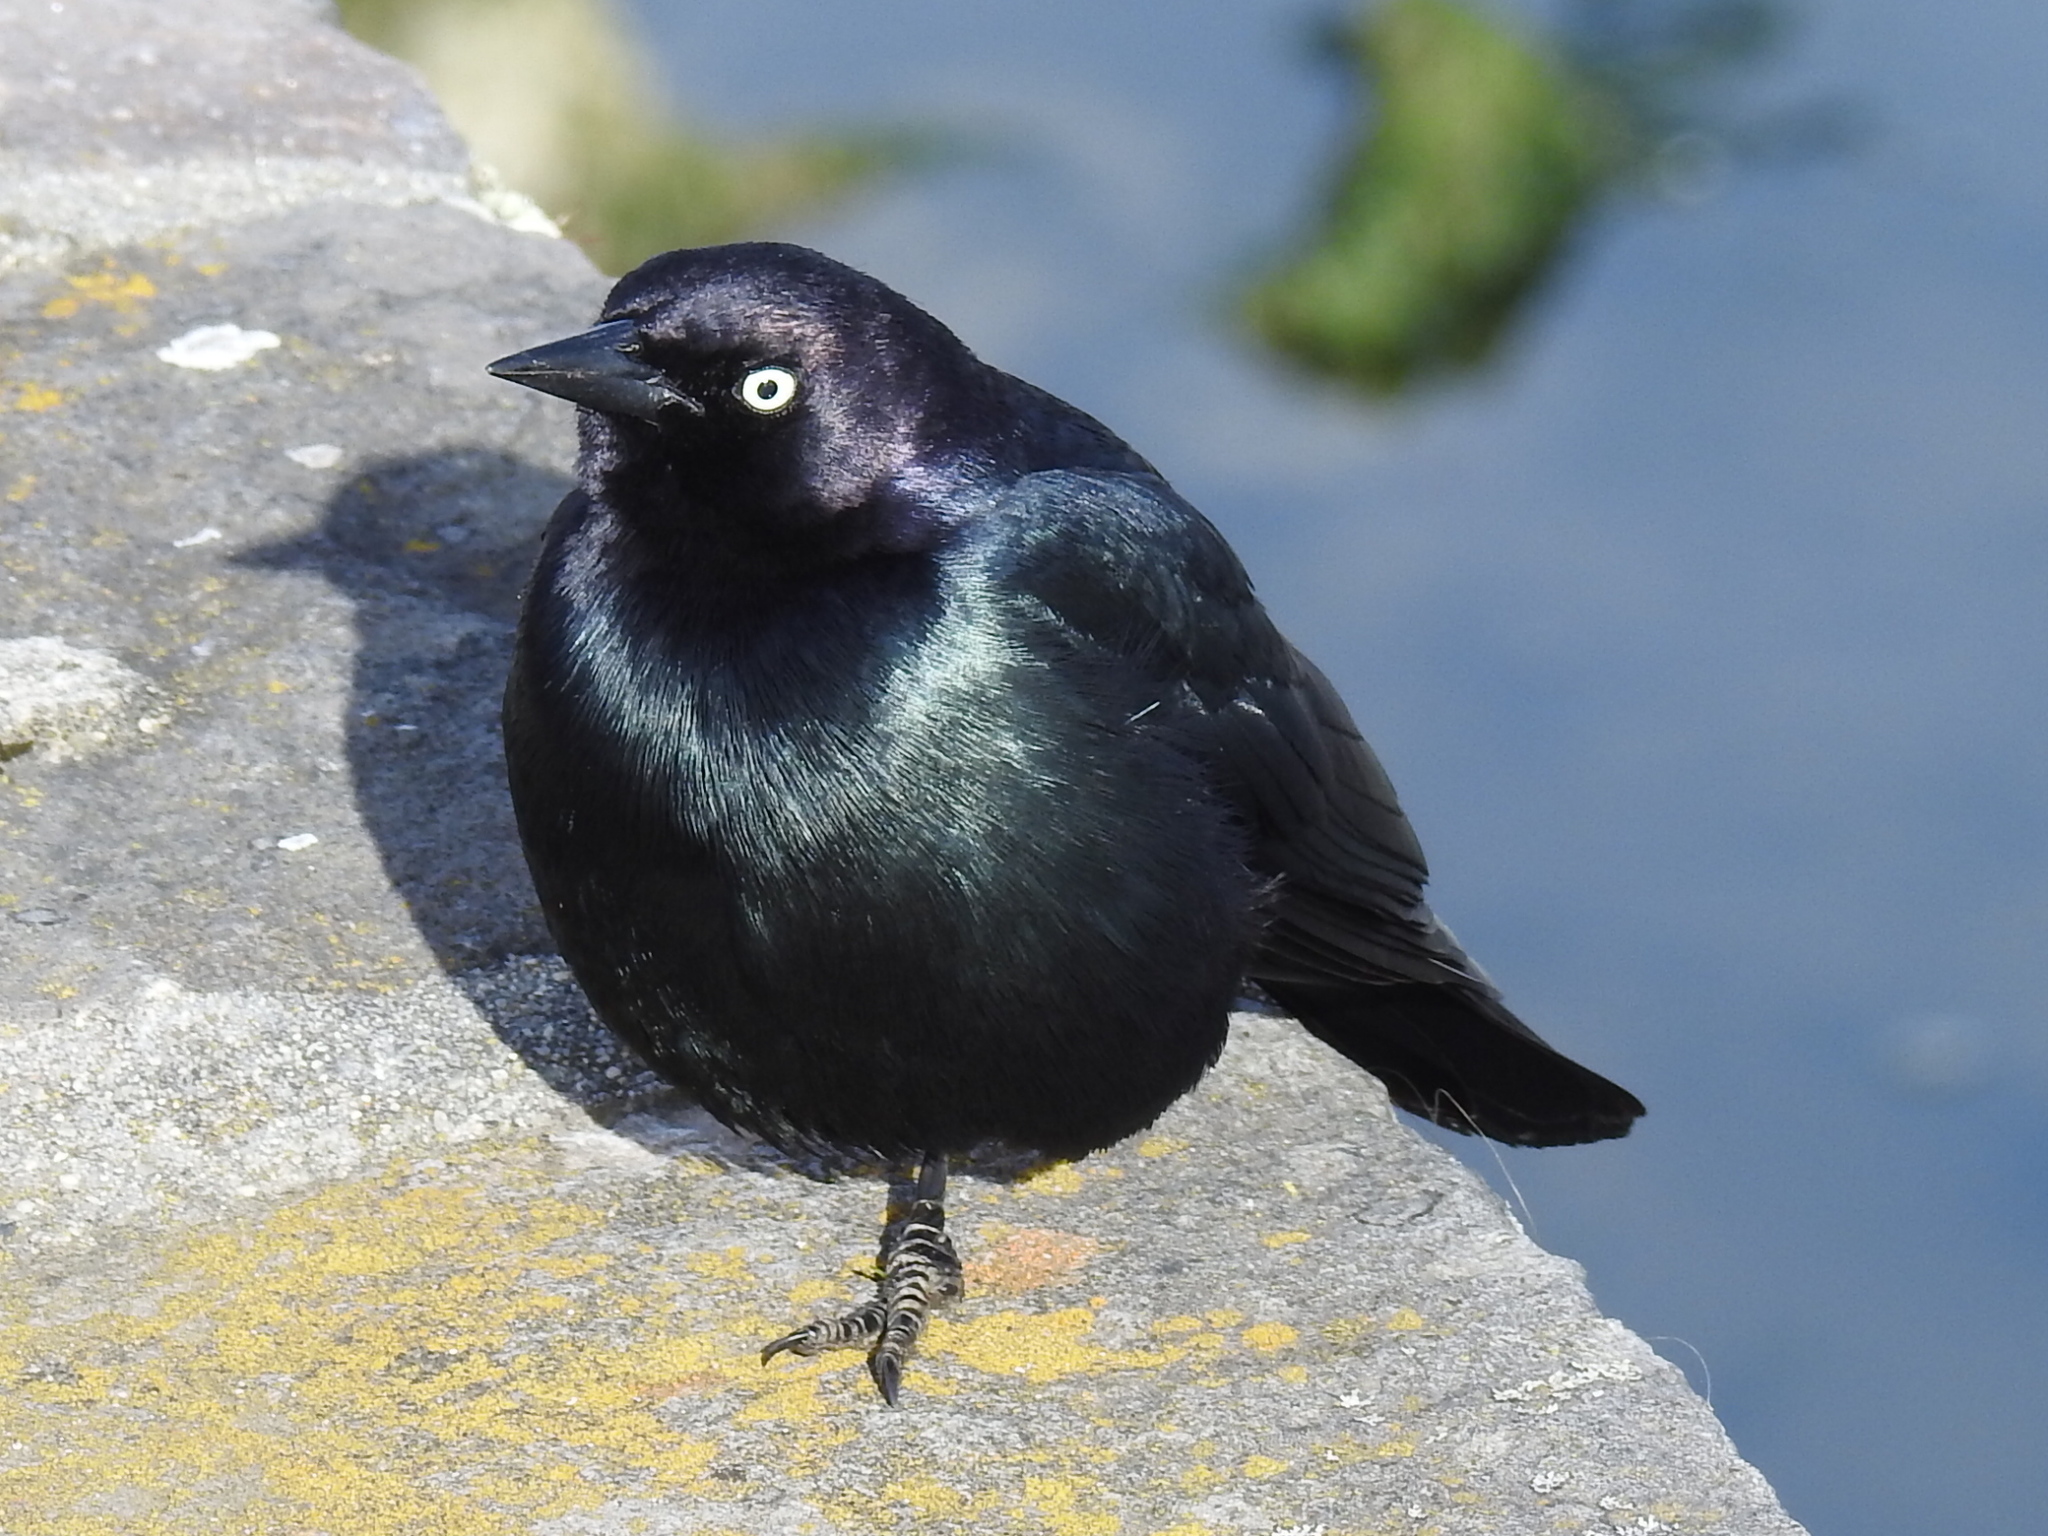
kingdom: Animalia
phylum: Chordata
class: Aves
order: Passeriformes
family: Icteridae
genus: Euphagus
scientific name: Euphagus cyanocephalus
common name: Brewer's blackbird
